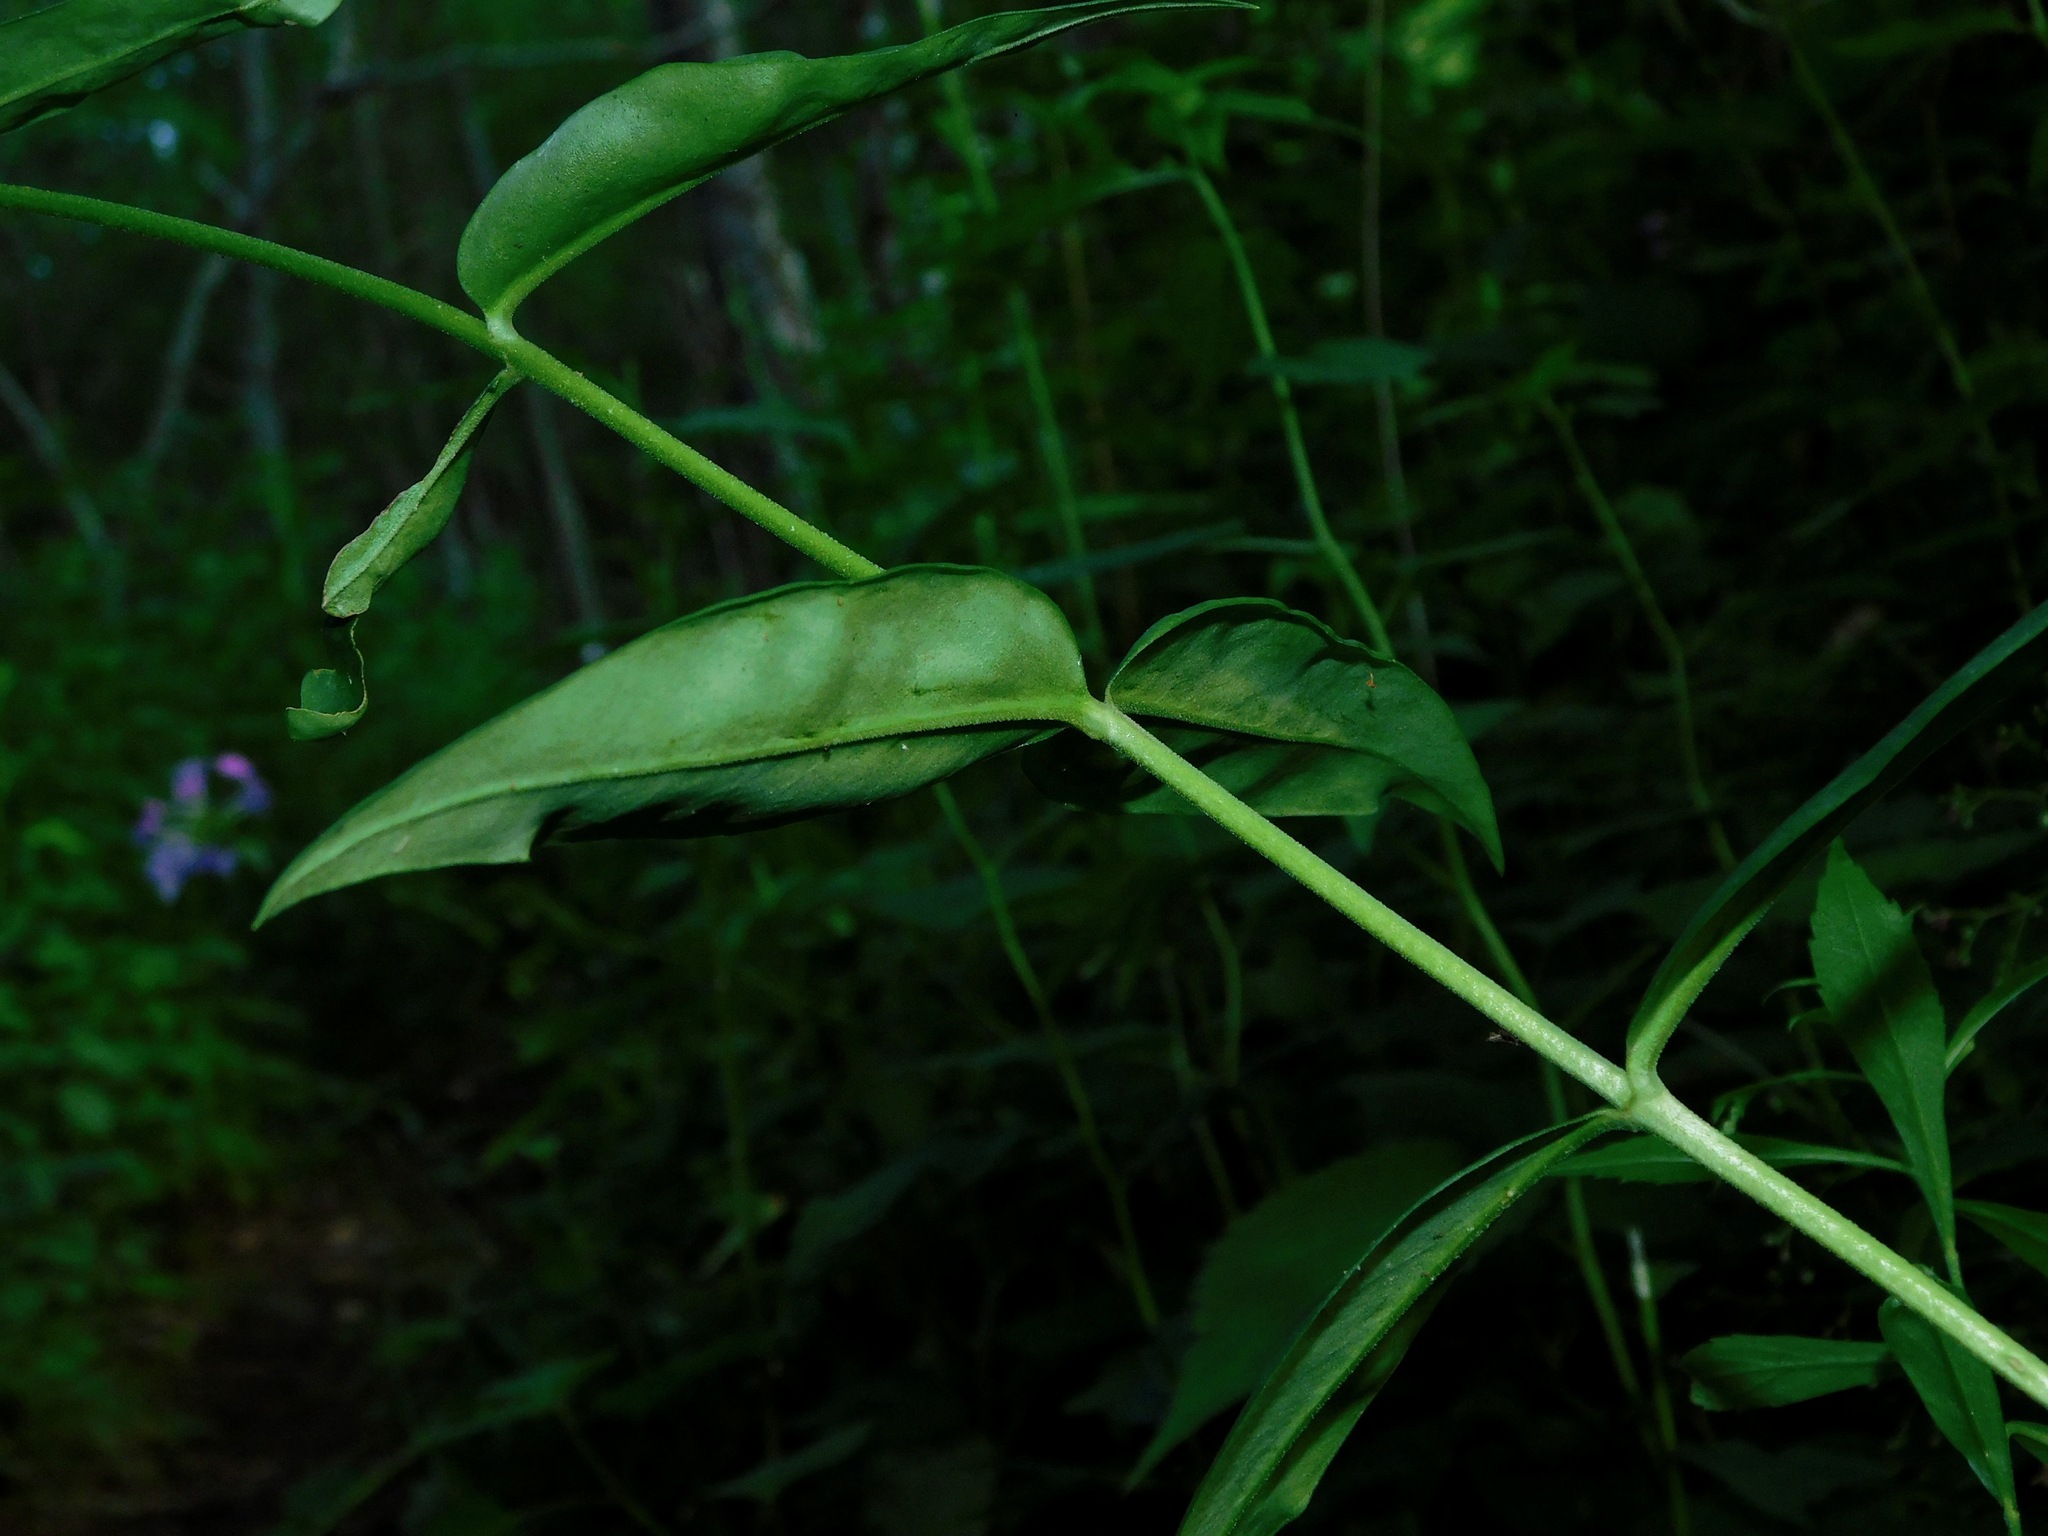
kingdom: Plantae
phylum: Tracheophyta
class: Magnoliopsida
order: Ericales
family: Polemoniaceae
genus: Phlox
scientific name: Phlox carolina
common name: Thick-leaf phlox
